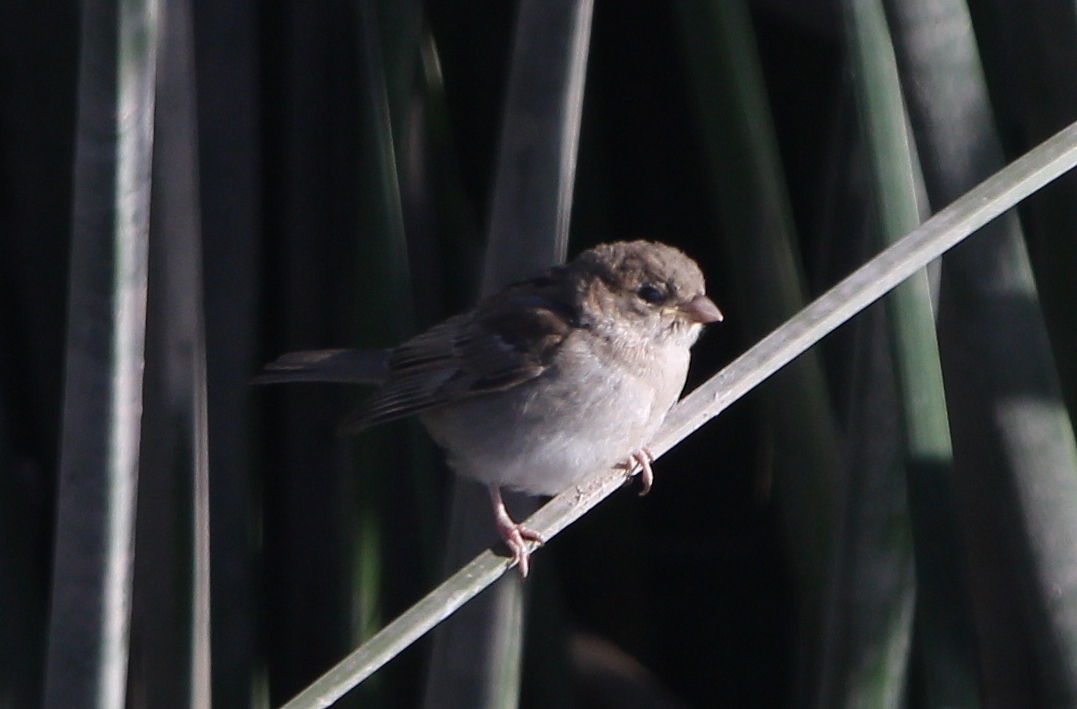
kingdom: Animalia
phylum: Chordata
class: Aves
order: Passeriformes
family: Passeridae
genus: Passer
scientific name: Passer domesticus
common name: House sparrow
